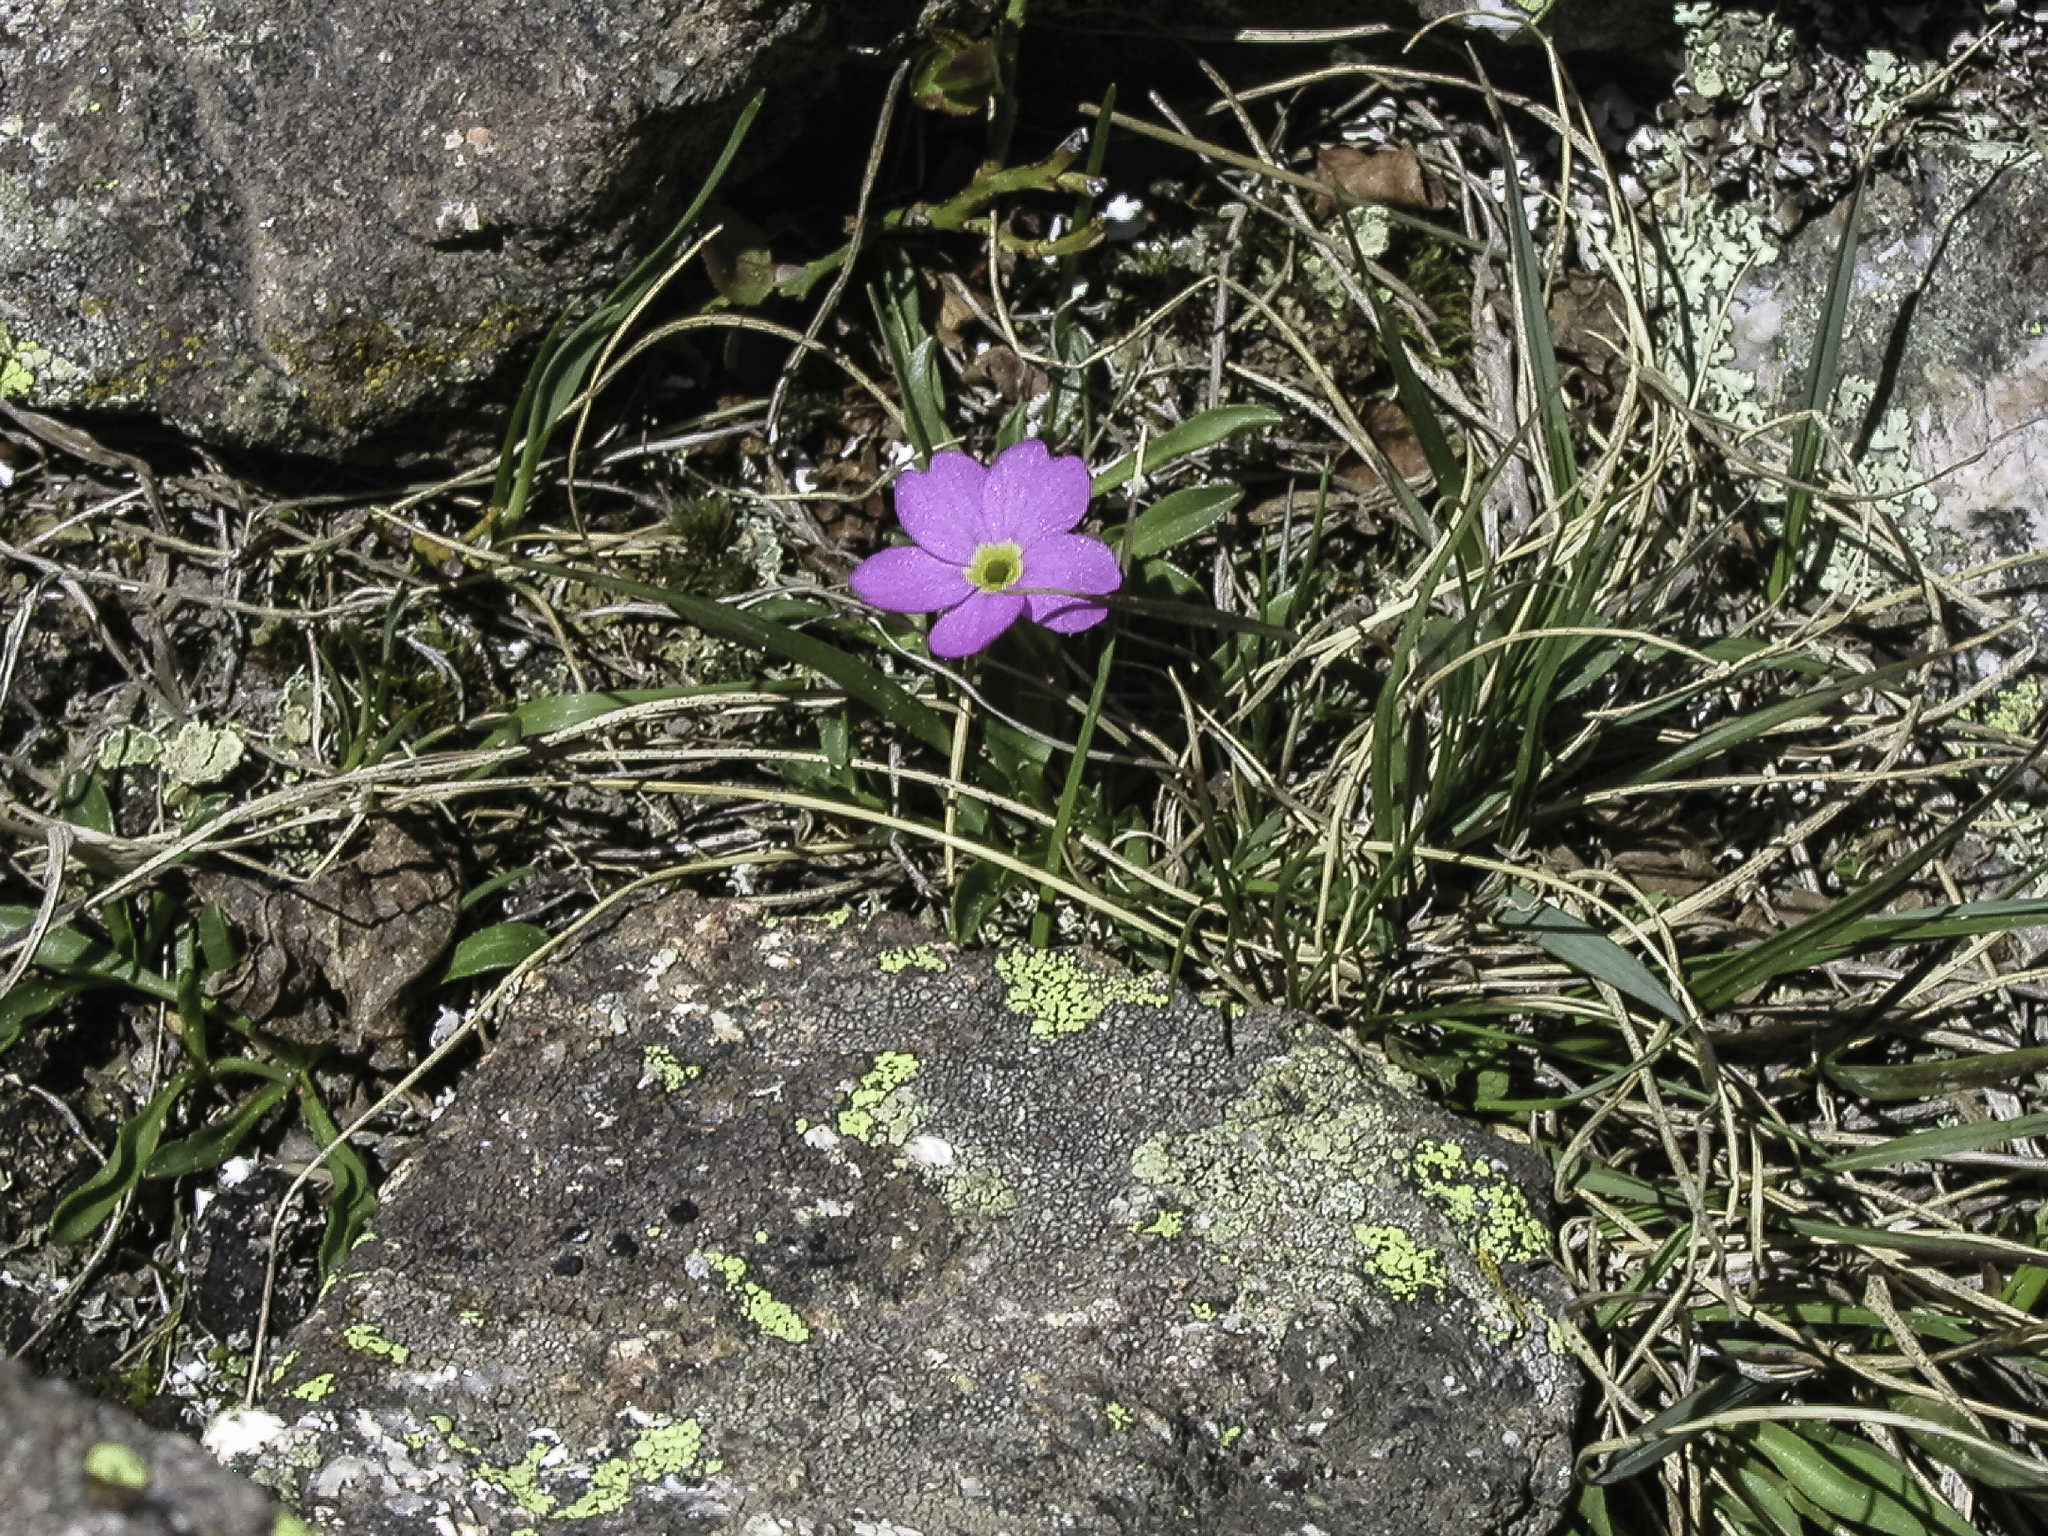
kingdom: Plantae
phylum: Tracheophyta
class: Magnoliopsida
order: Ericales
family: Primulaceae
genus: Primula
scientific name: Primula angustifolia
